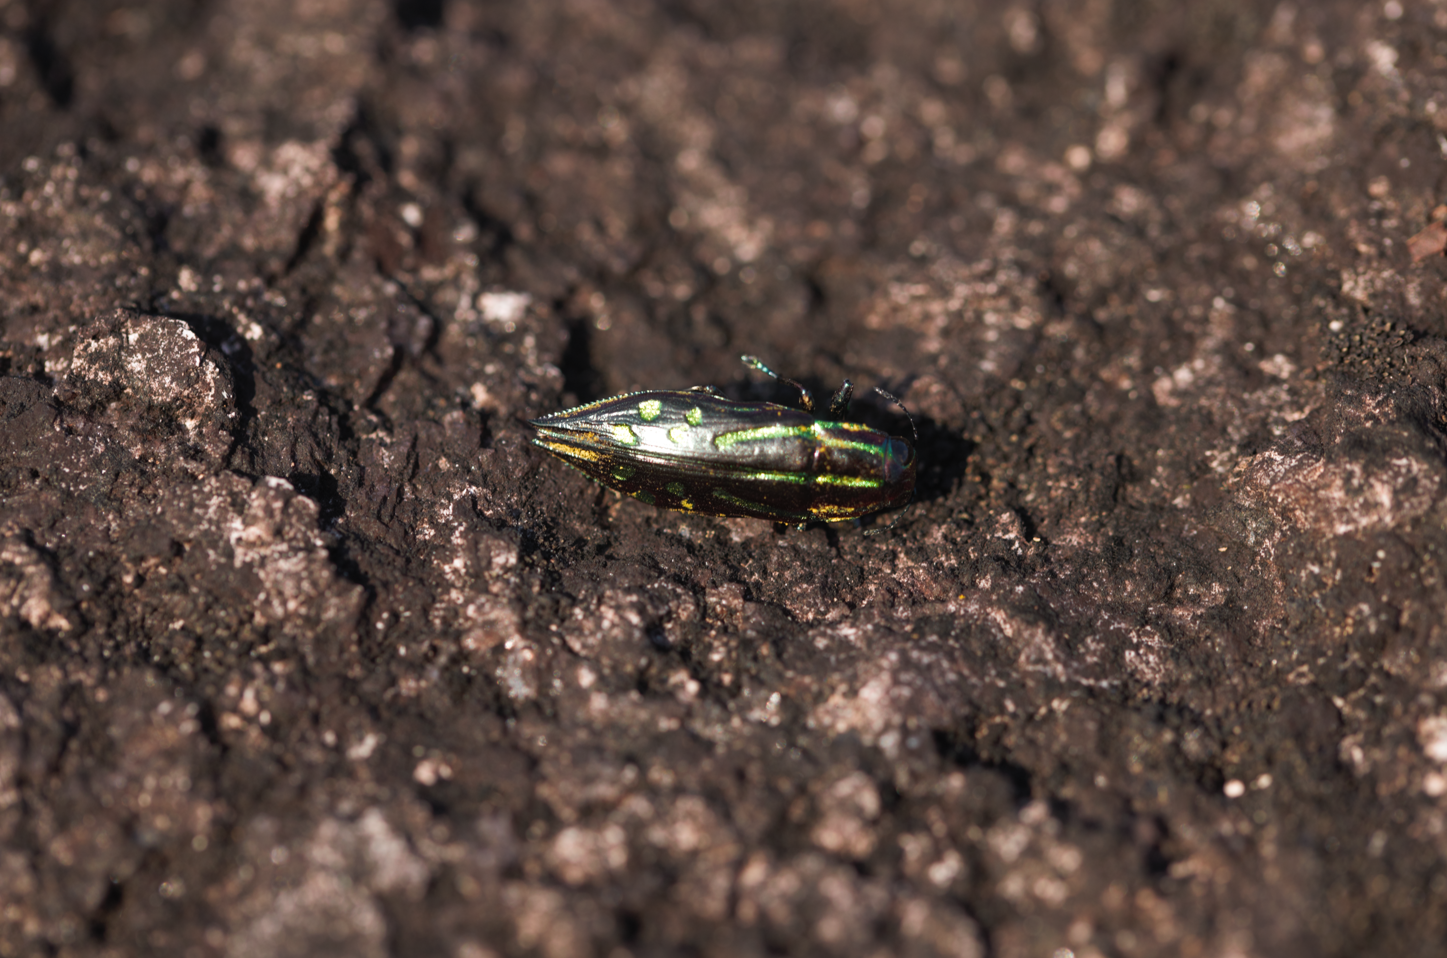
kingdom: Animalia
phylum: Arthropoda
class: Insecta
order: Coleoptera
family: Buprestidae
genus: Halecia
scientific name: Halecia trisulcata
